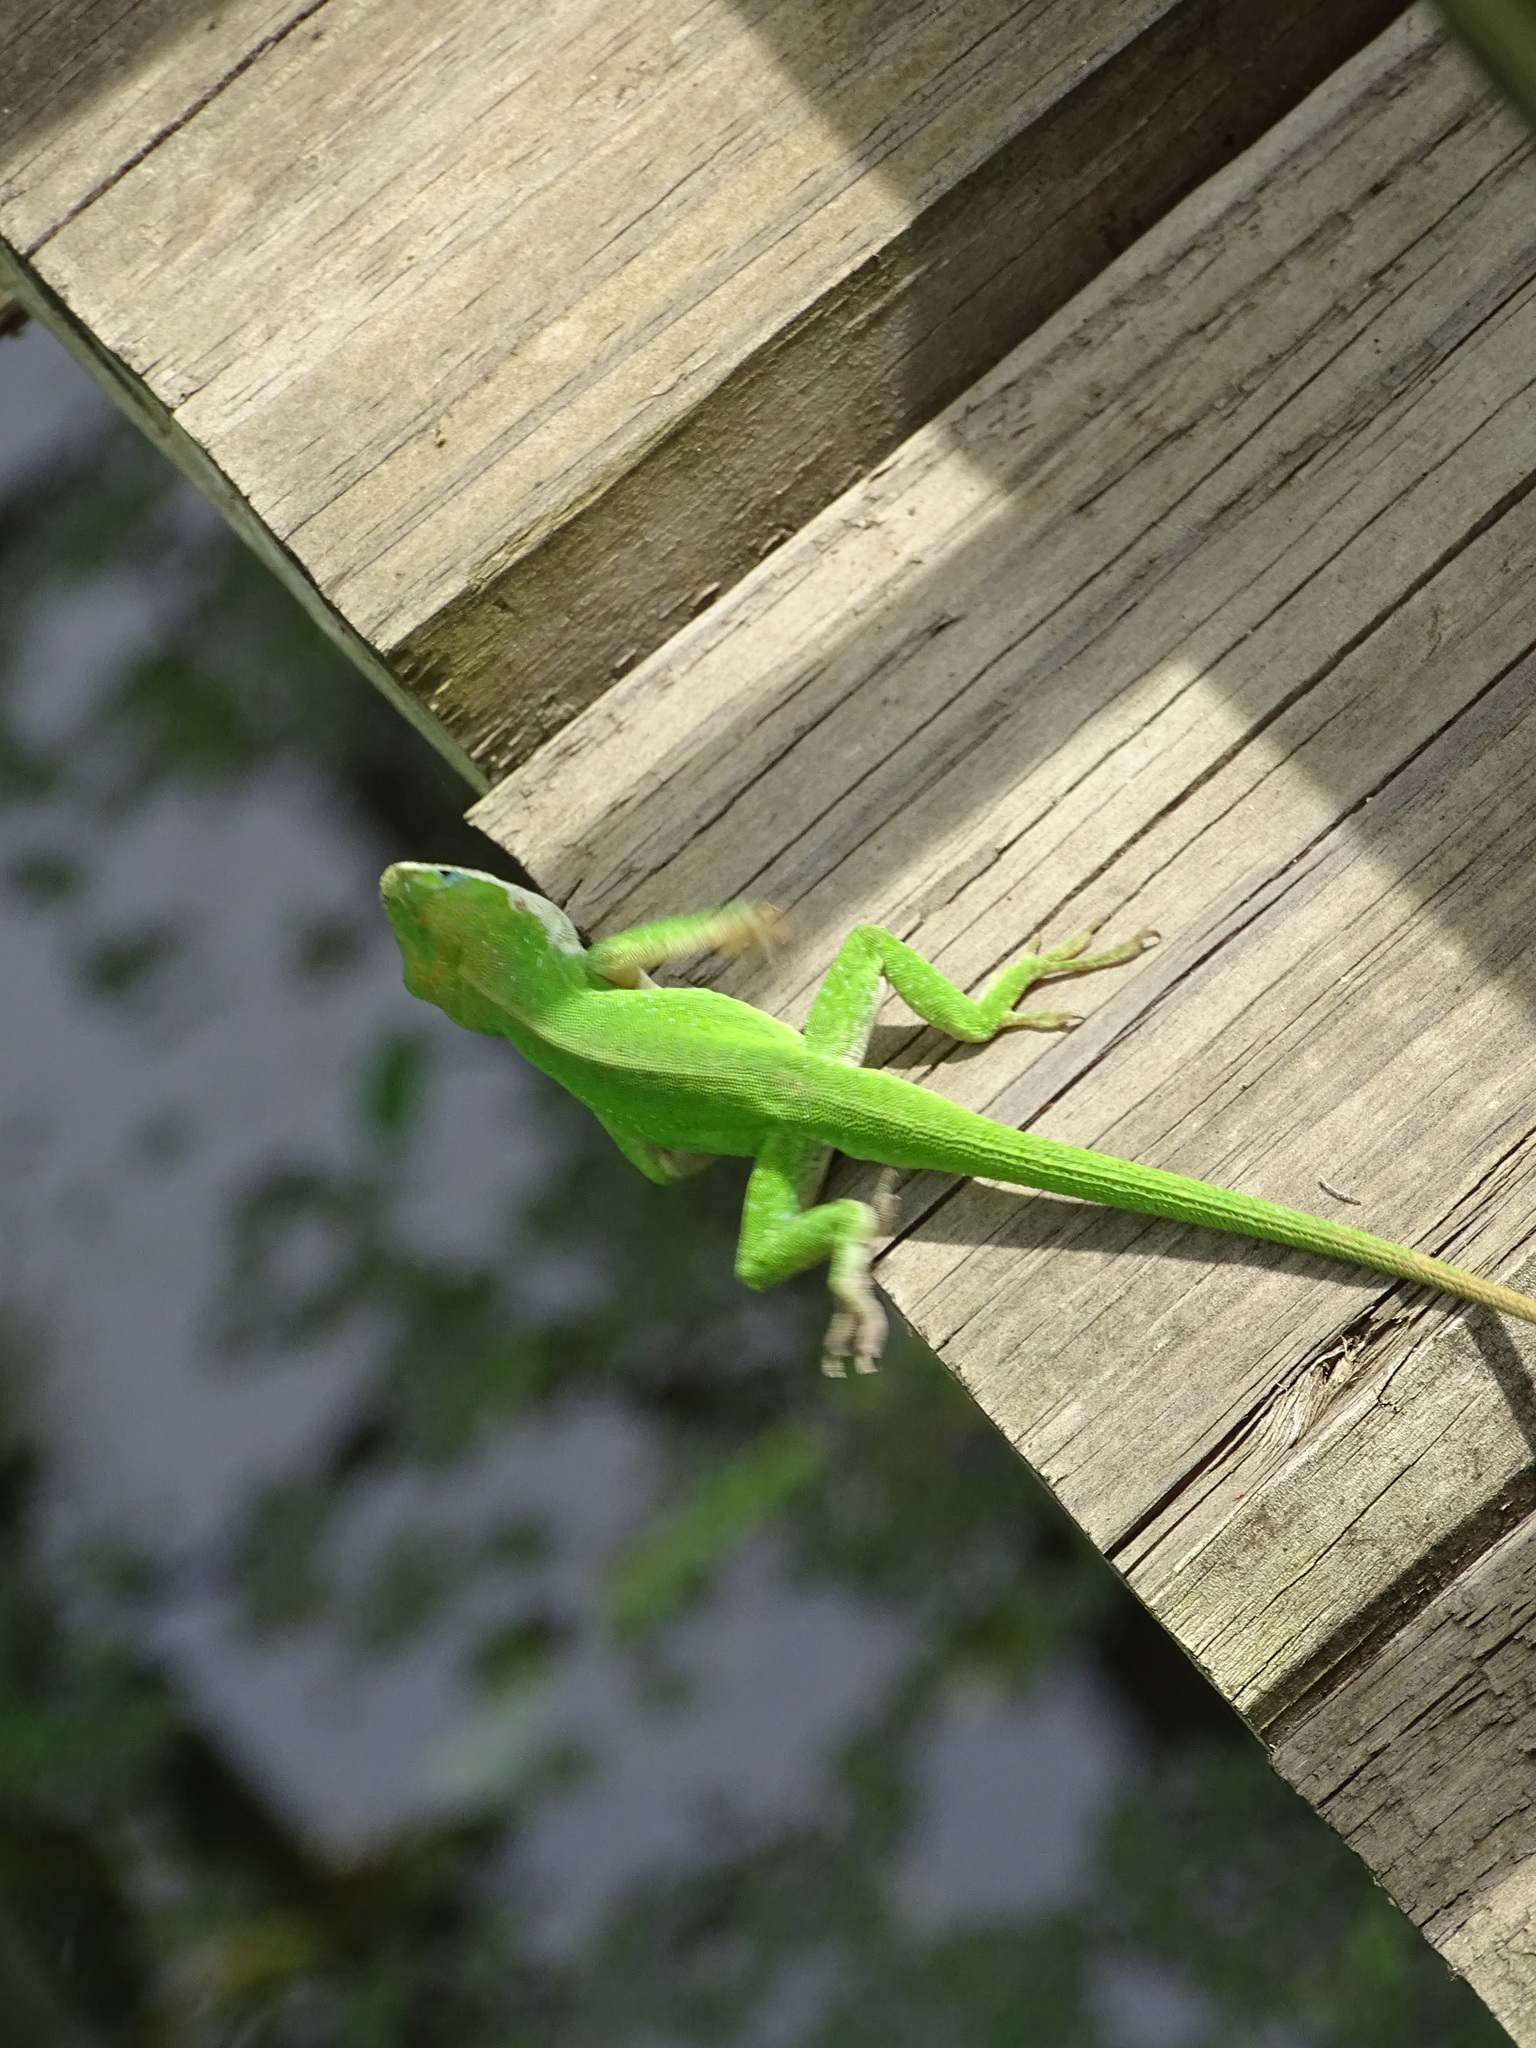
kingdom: Animalia
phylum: Chordata
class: Squamata
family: Dactyloidae
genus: Anolis
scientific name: Anolis carolinensis
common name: Green anole
